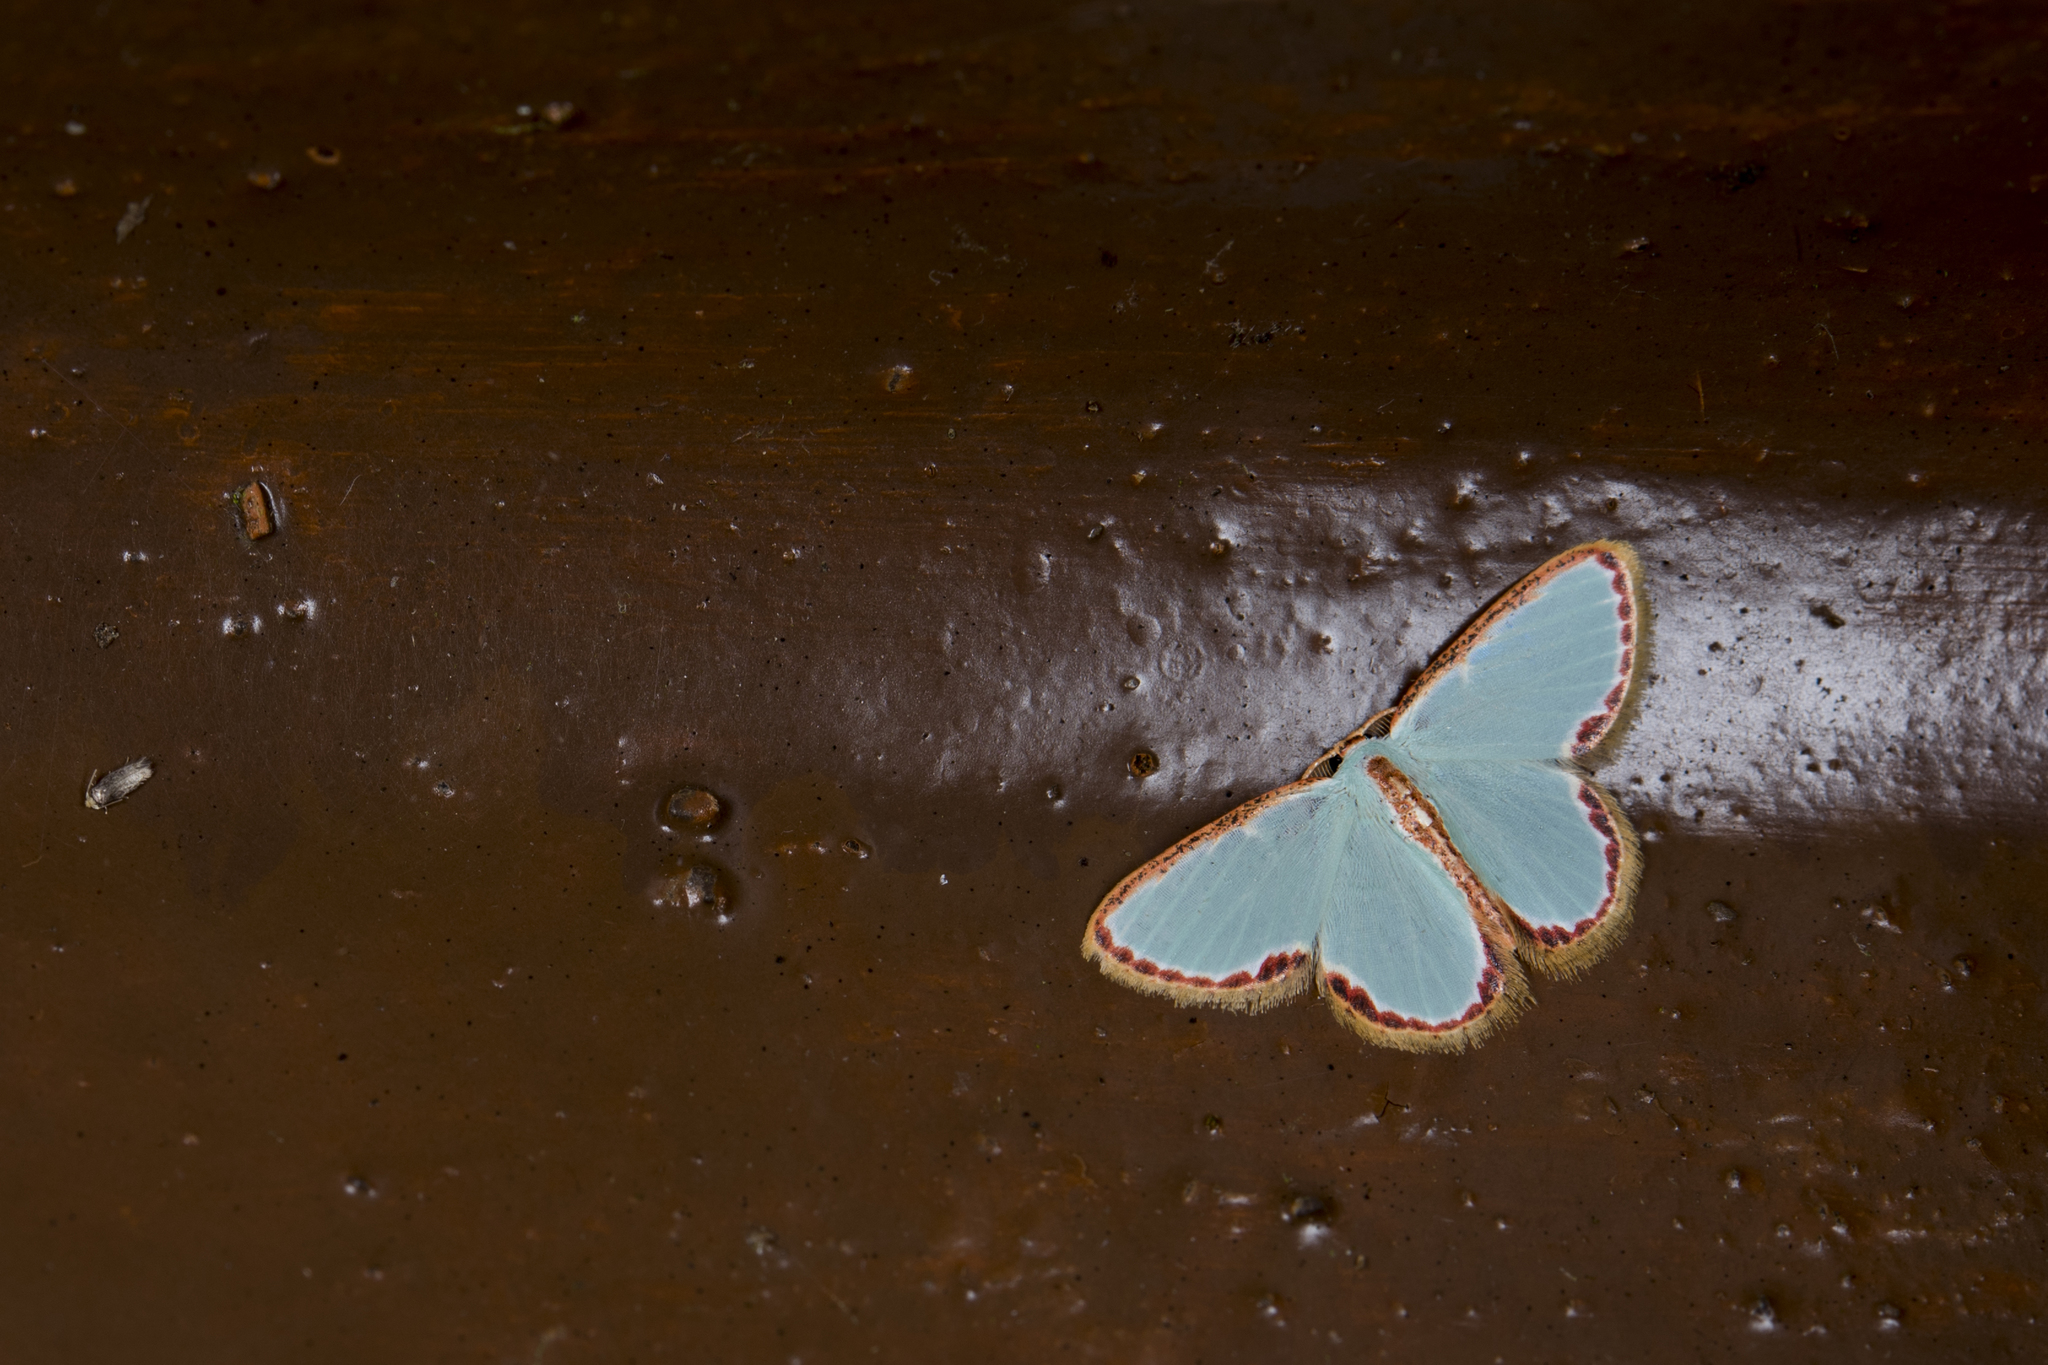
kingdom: Animalia
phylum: Arthropoda
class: Insecta
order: Lepidoptera
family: Geometridae
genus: Comostola
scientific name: Comostola pyrrhogona
